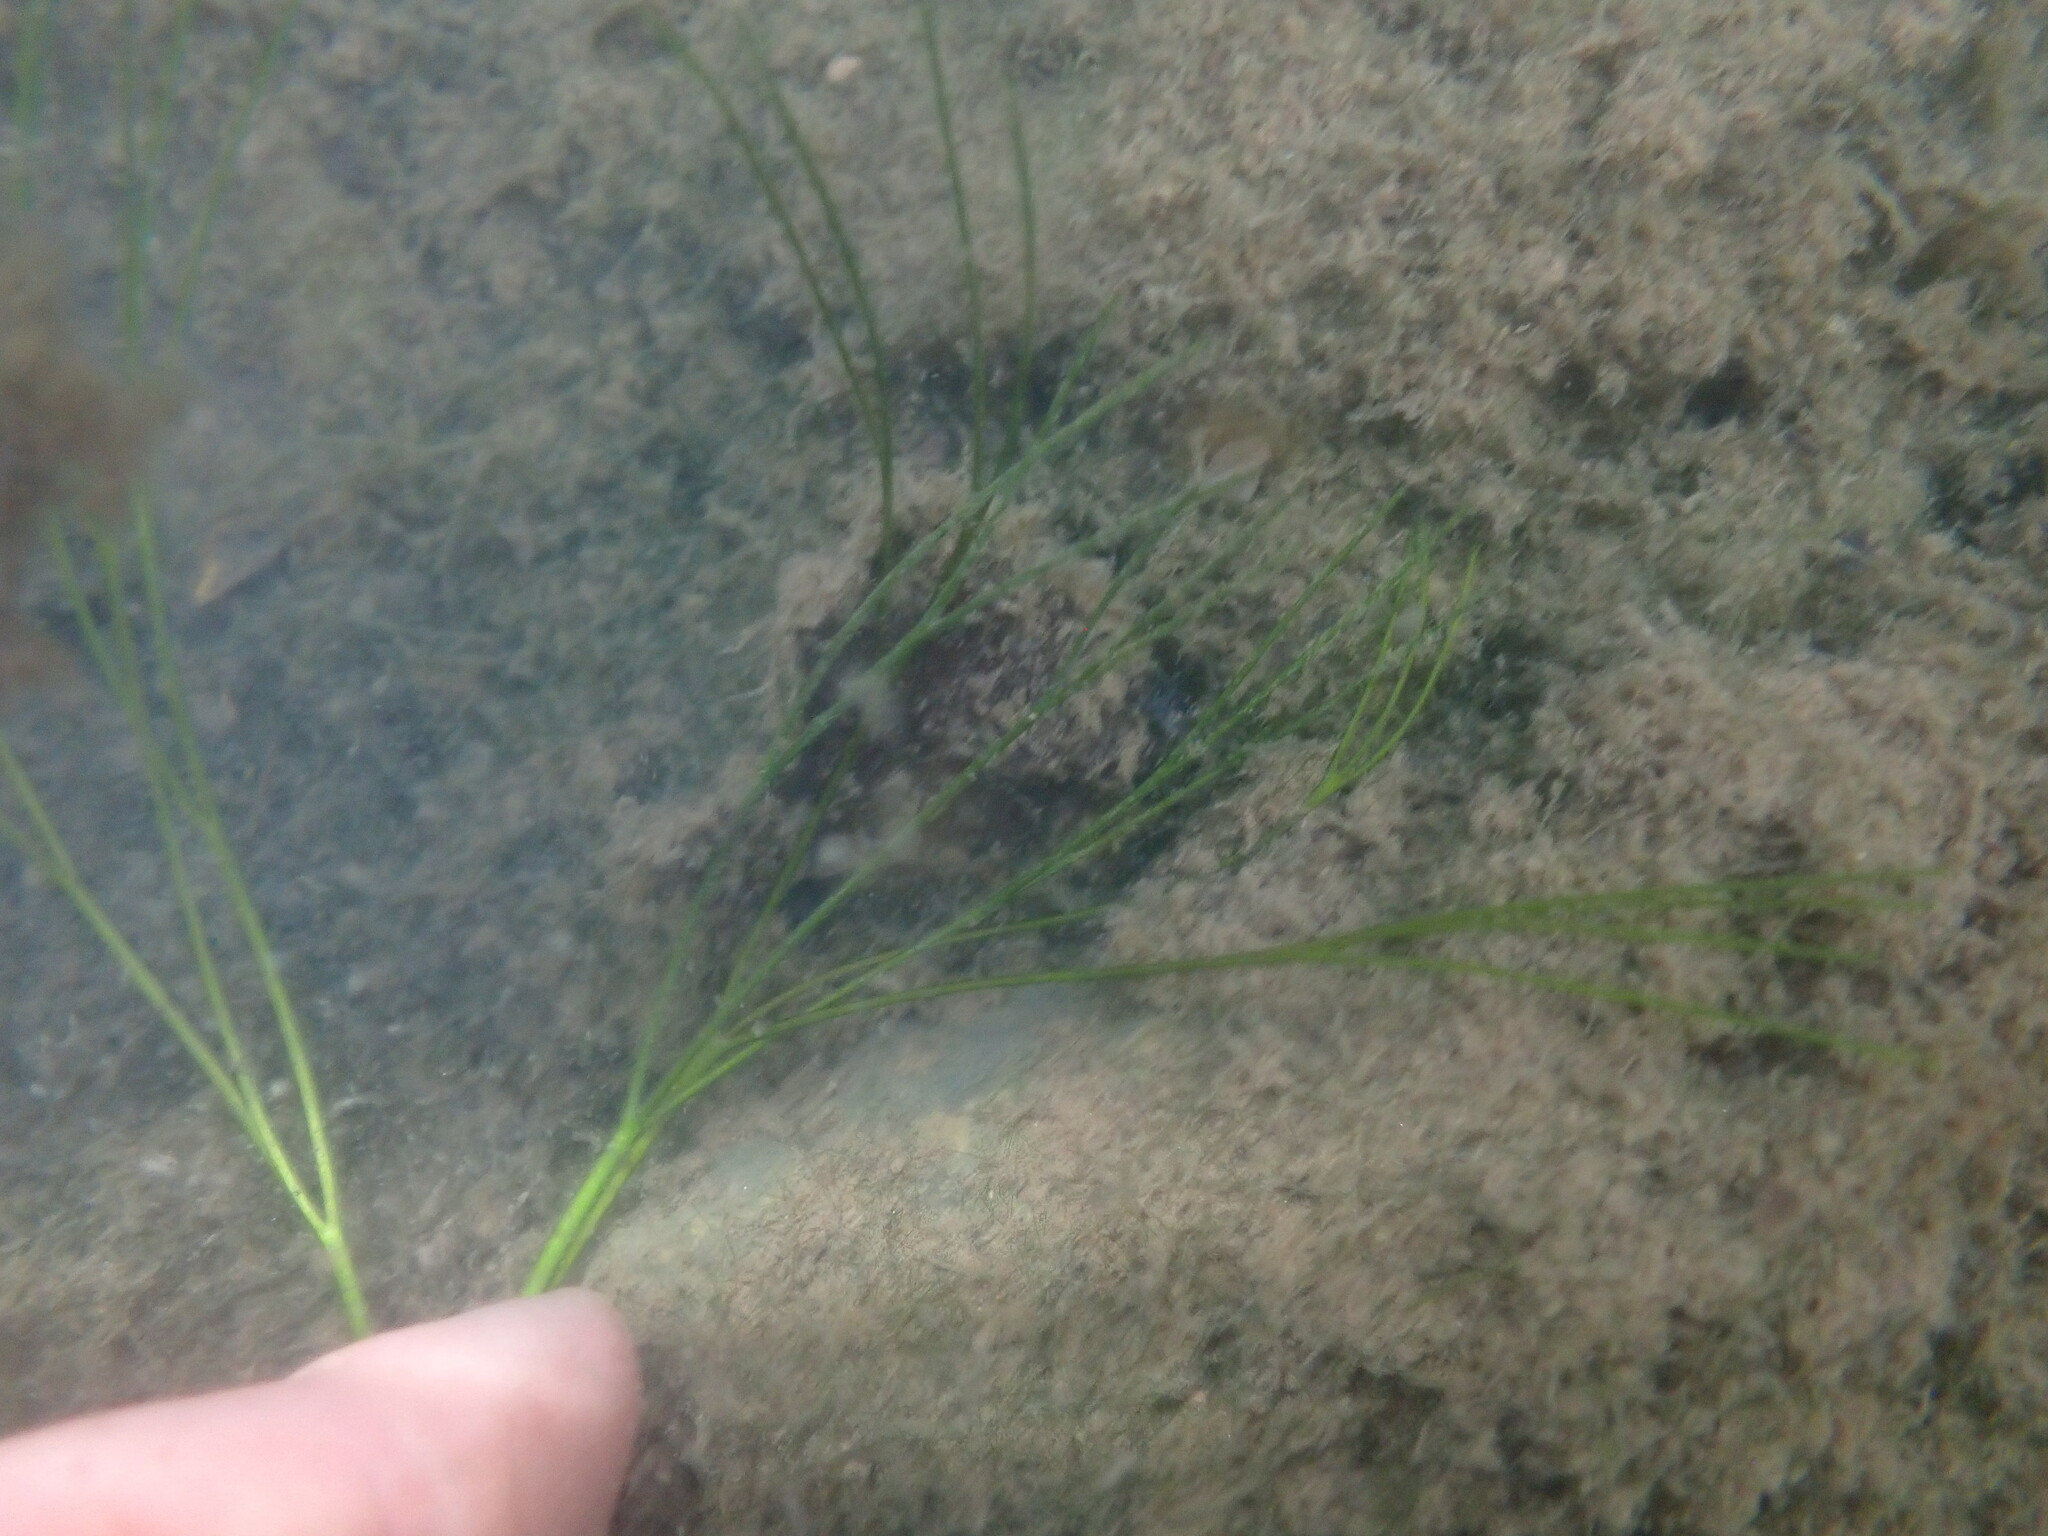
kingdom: Plantae
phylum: Tracheophyta
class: Magnoliopsida
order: Ranunculales
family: Ranunculaceae
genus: Ranunculus
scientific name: Ranunculus fluitans
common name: River water-crowfoot
